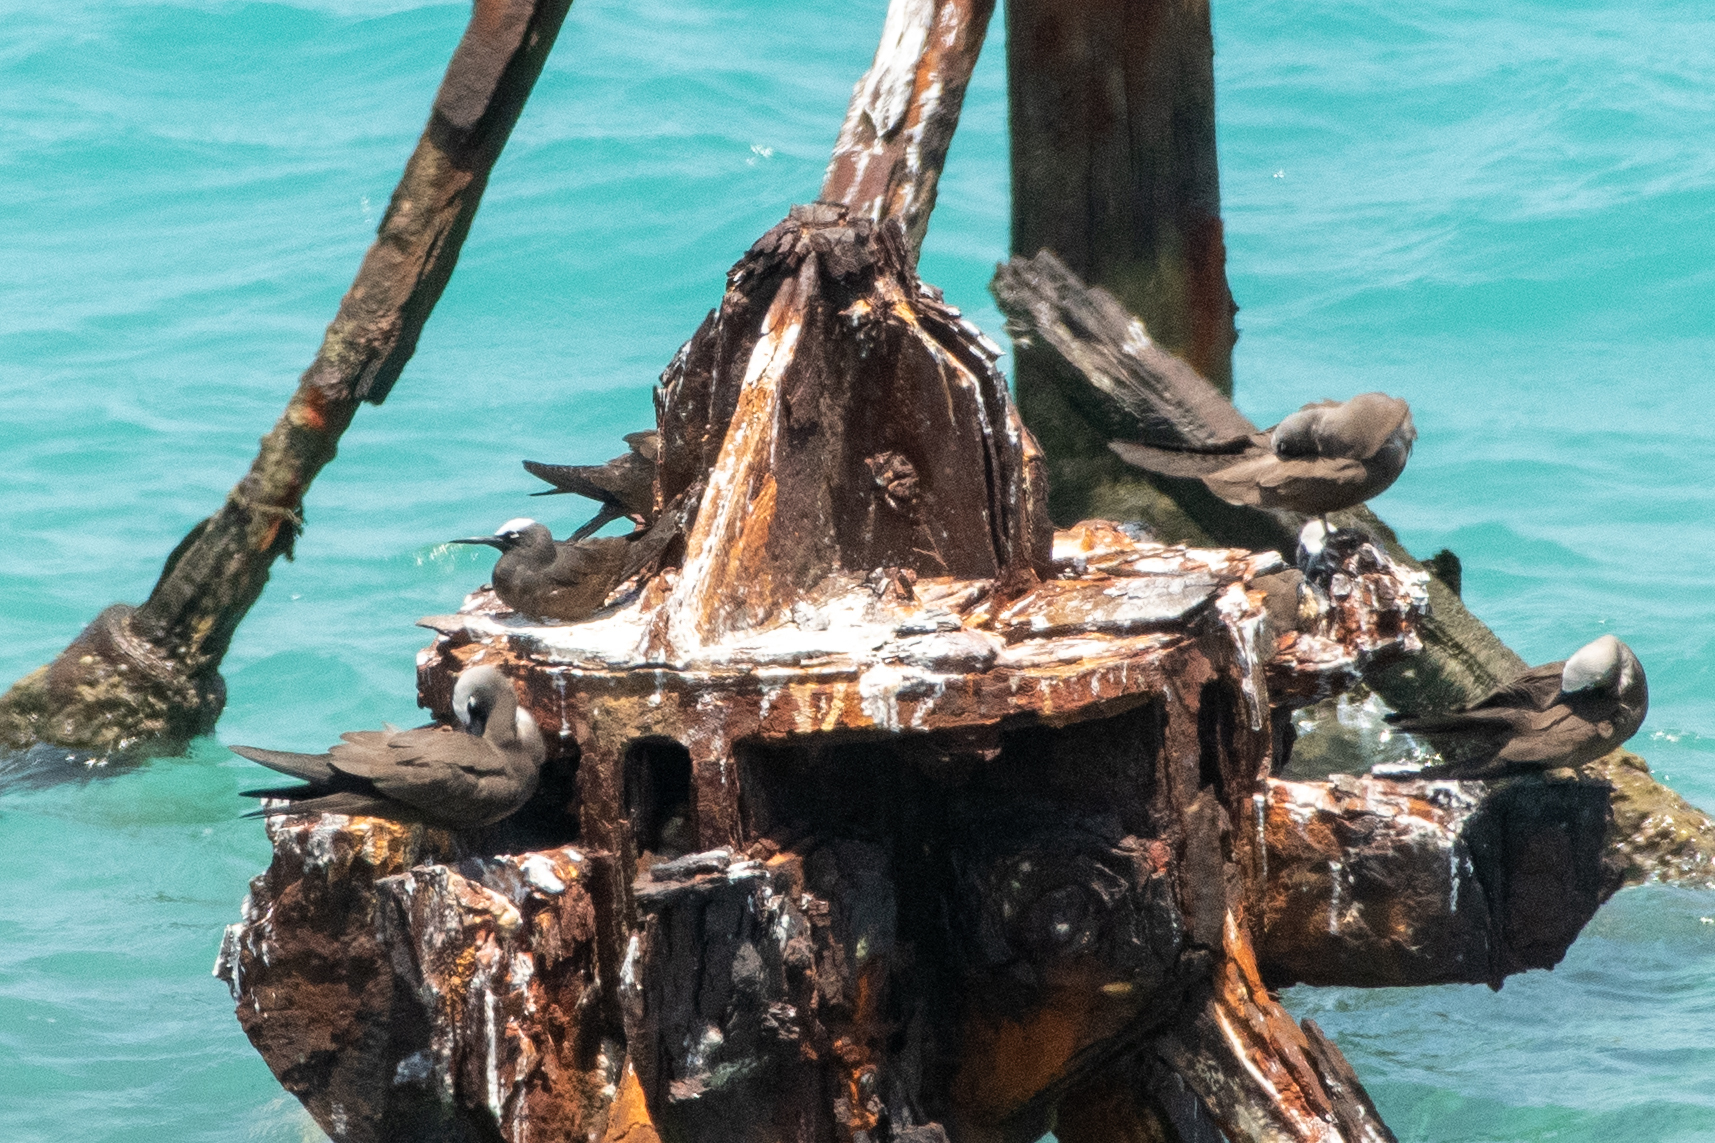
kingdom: Animalia
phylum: Chordata
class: Aves
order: Charadriiformes
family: Laridae
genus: Anous
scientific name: Anous minutus
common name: Black noddy
